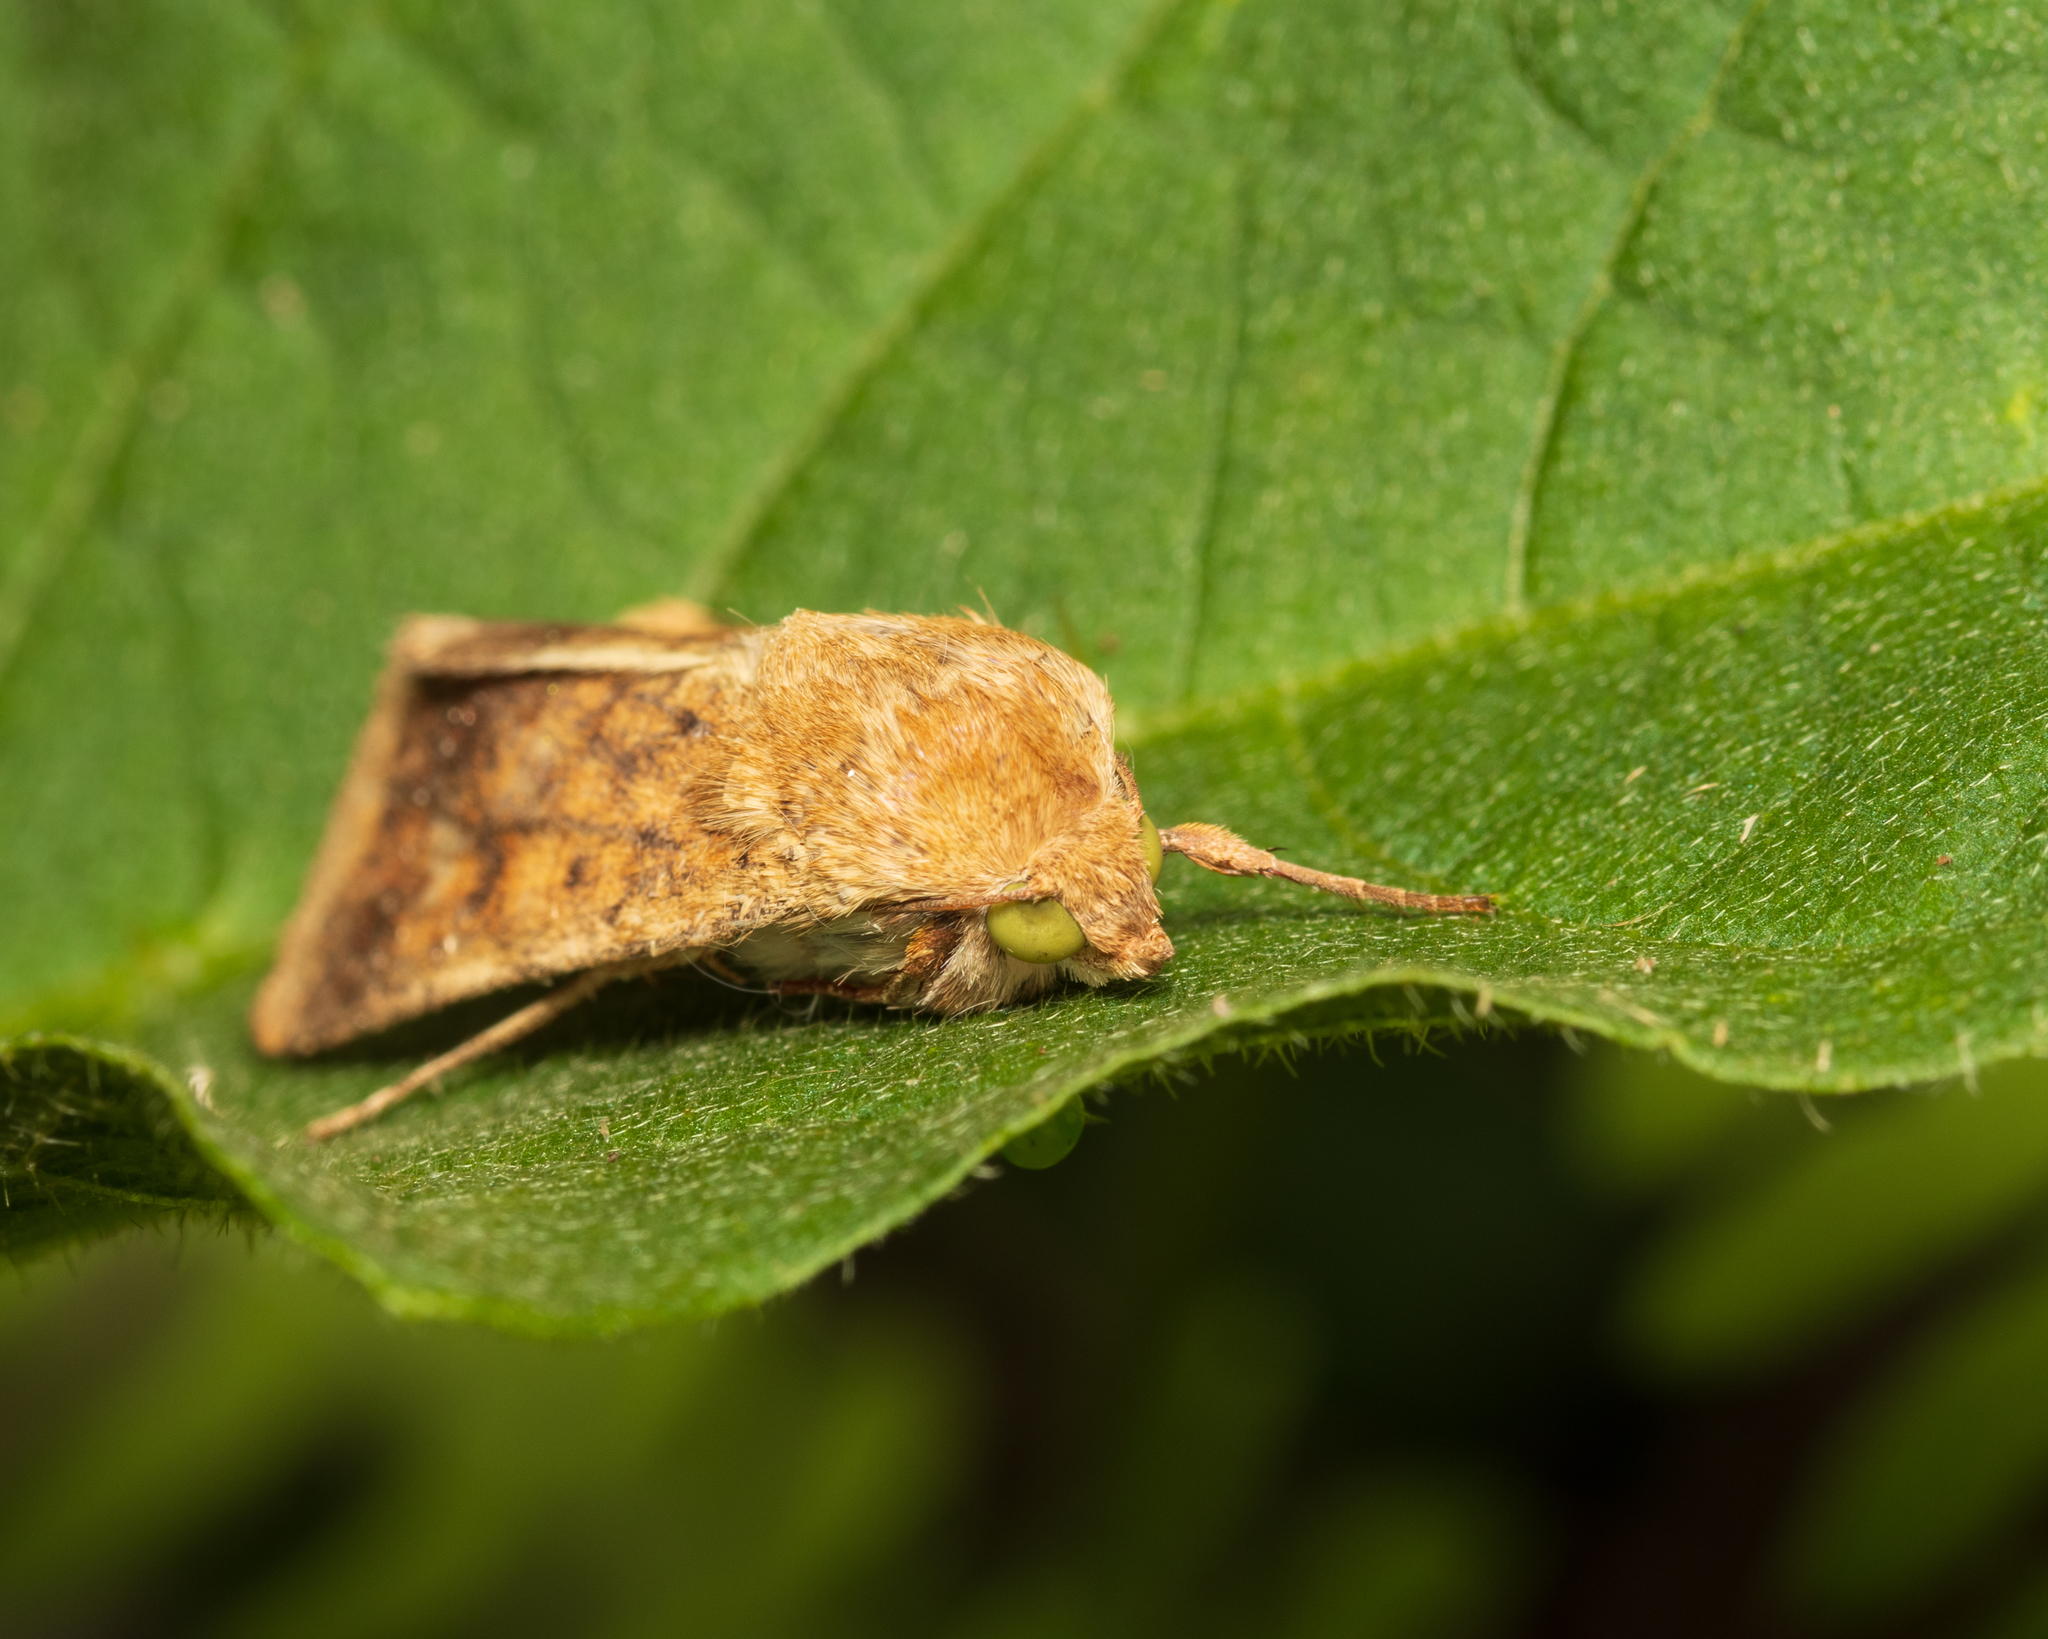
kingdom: Animalia
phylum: Arthropoda
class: Insecta
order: Lepidoptera
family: Noctuidae
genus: Helicoverpa
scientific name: Helicoverpa zea
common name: Bollworm
